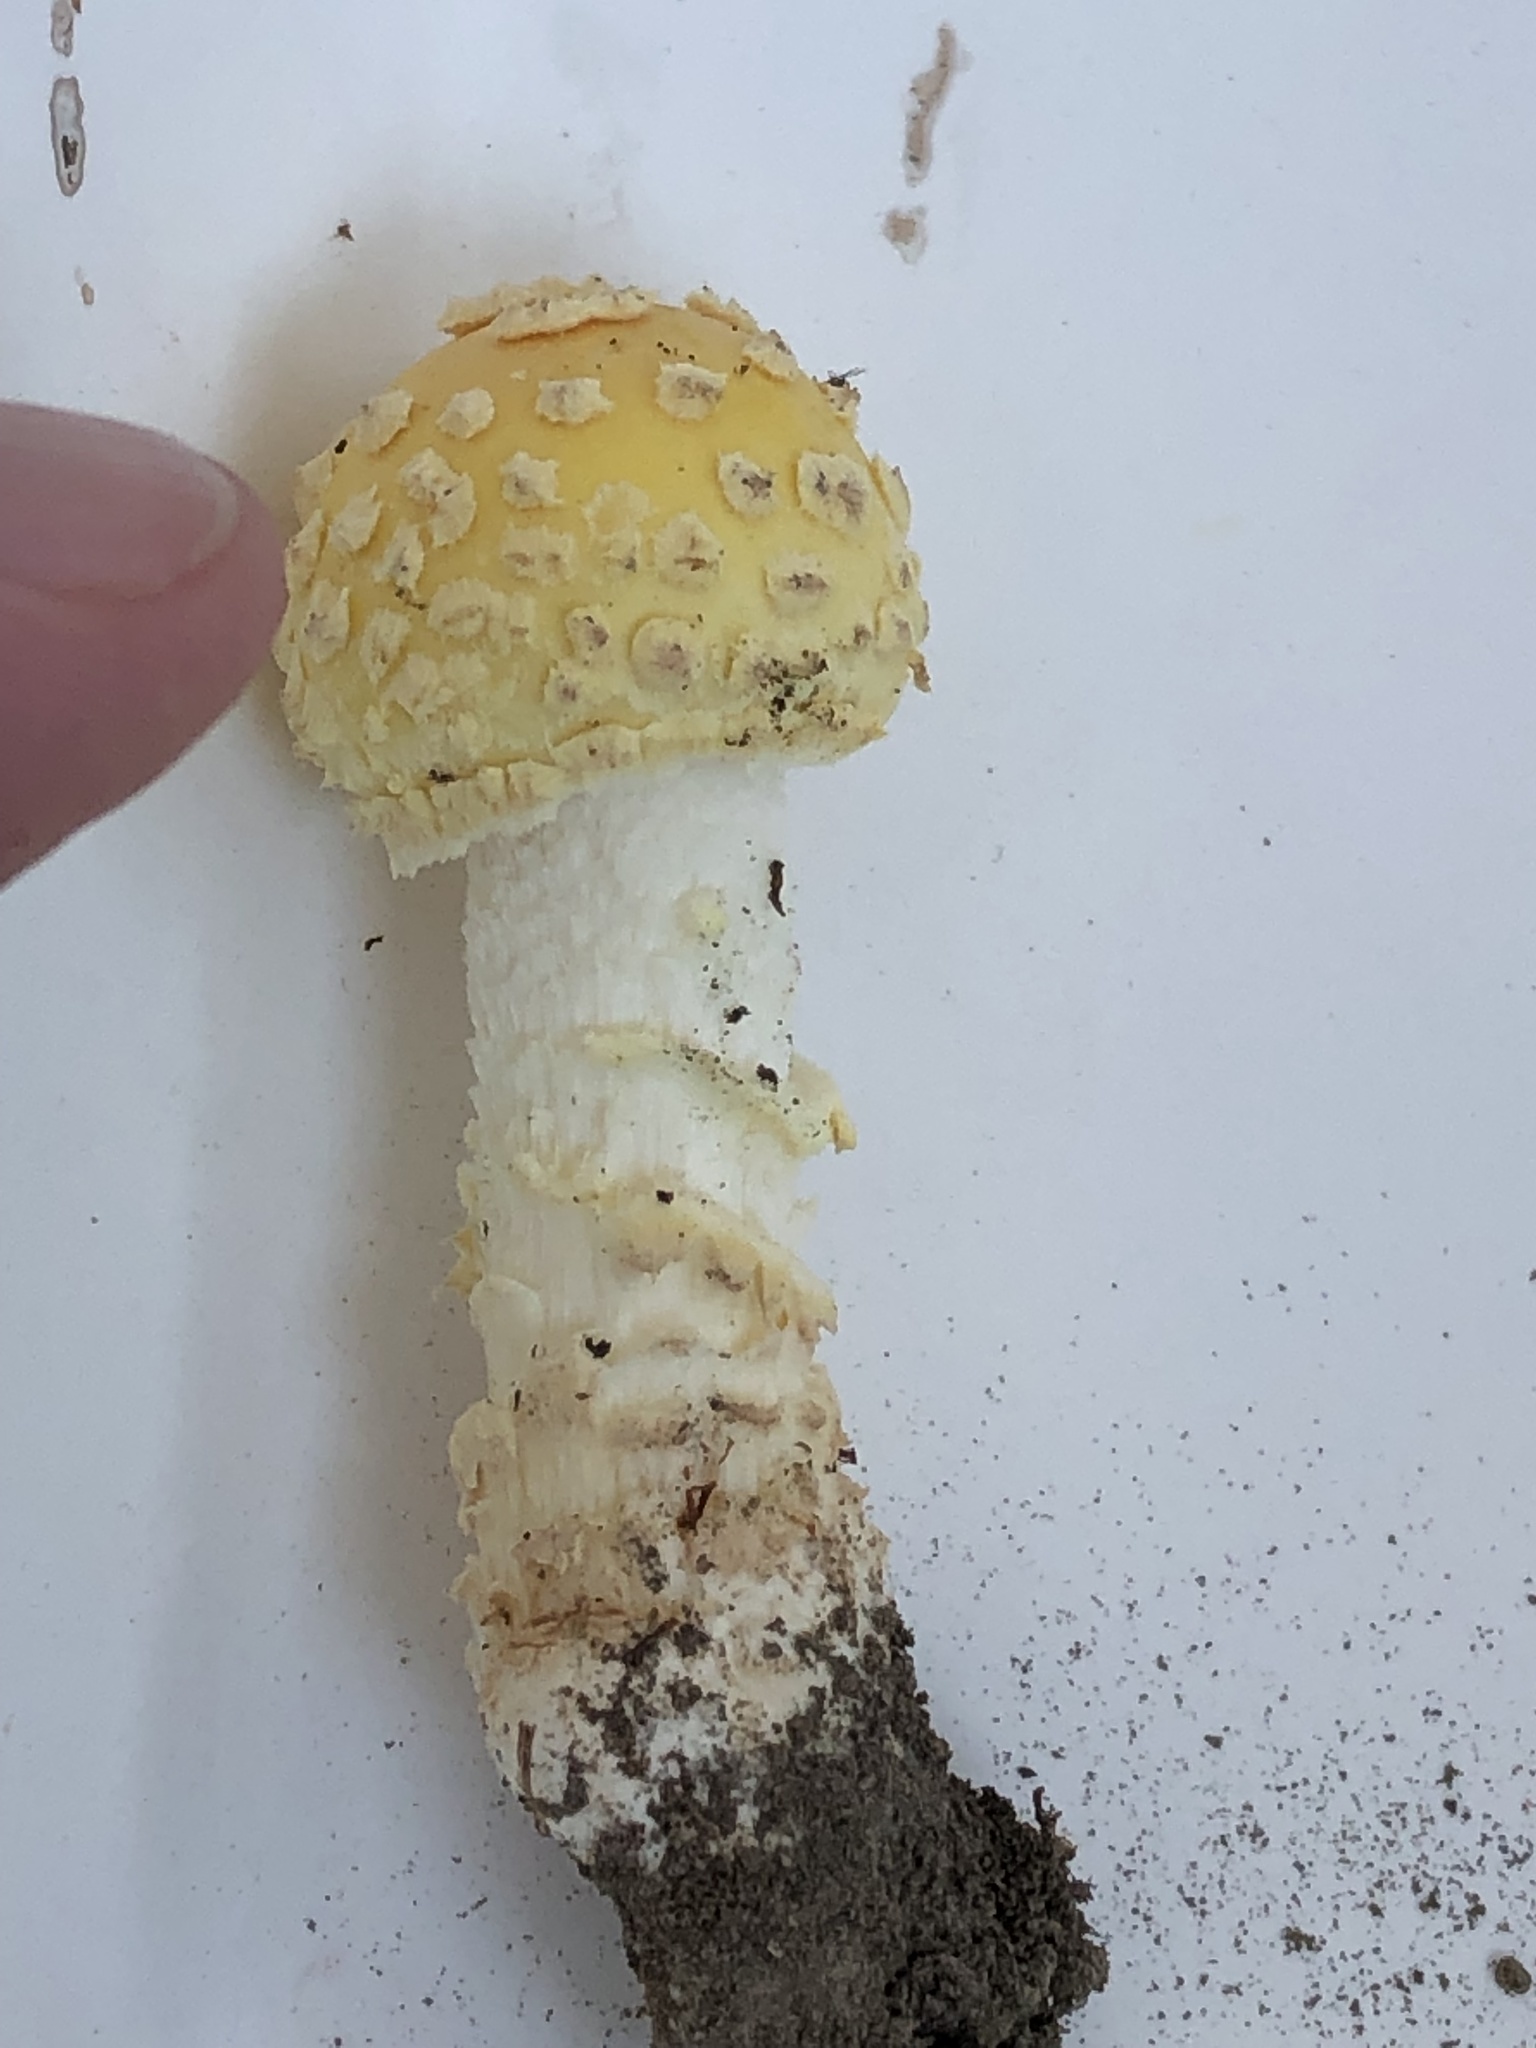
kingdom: Fungi
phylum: Basidiomycota
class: Agaricomycetes
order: Agaricales
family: Amanitaceae
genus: Amanita
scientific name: Amanita muscaria
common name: Fly agaric
